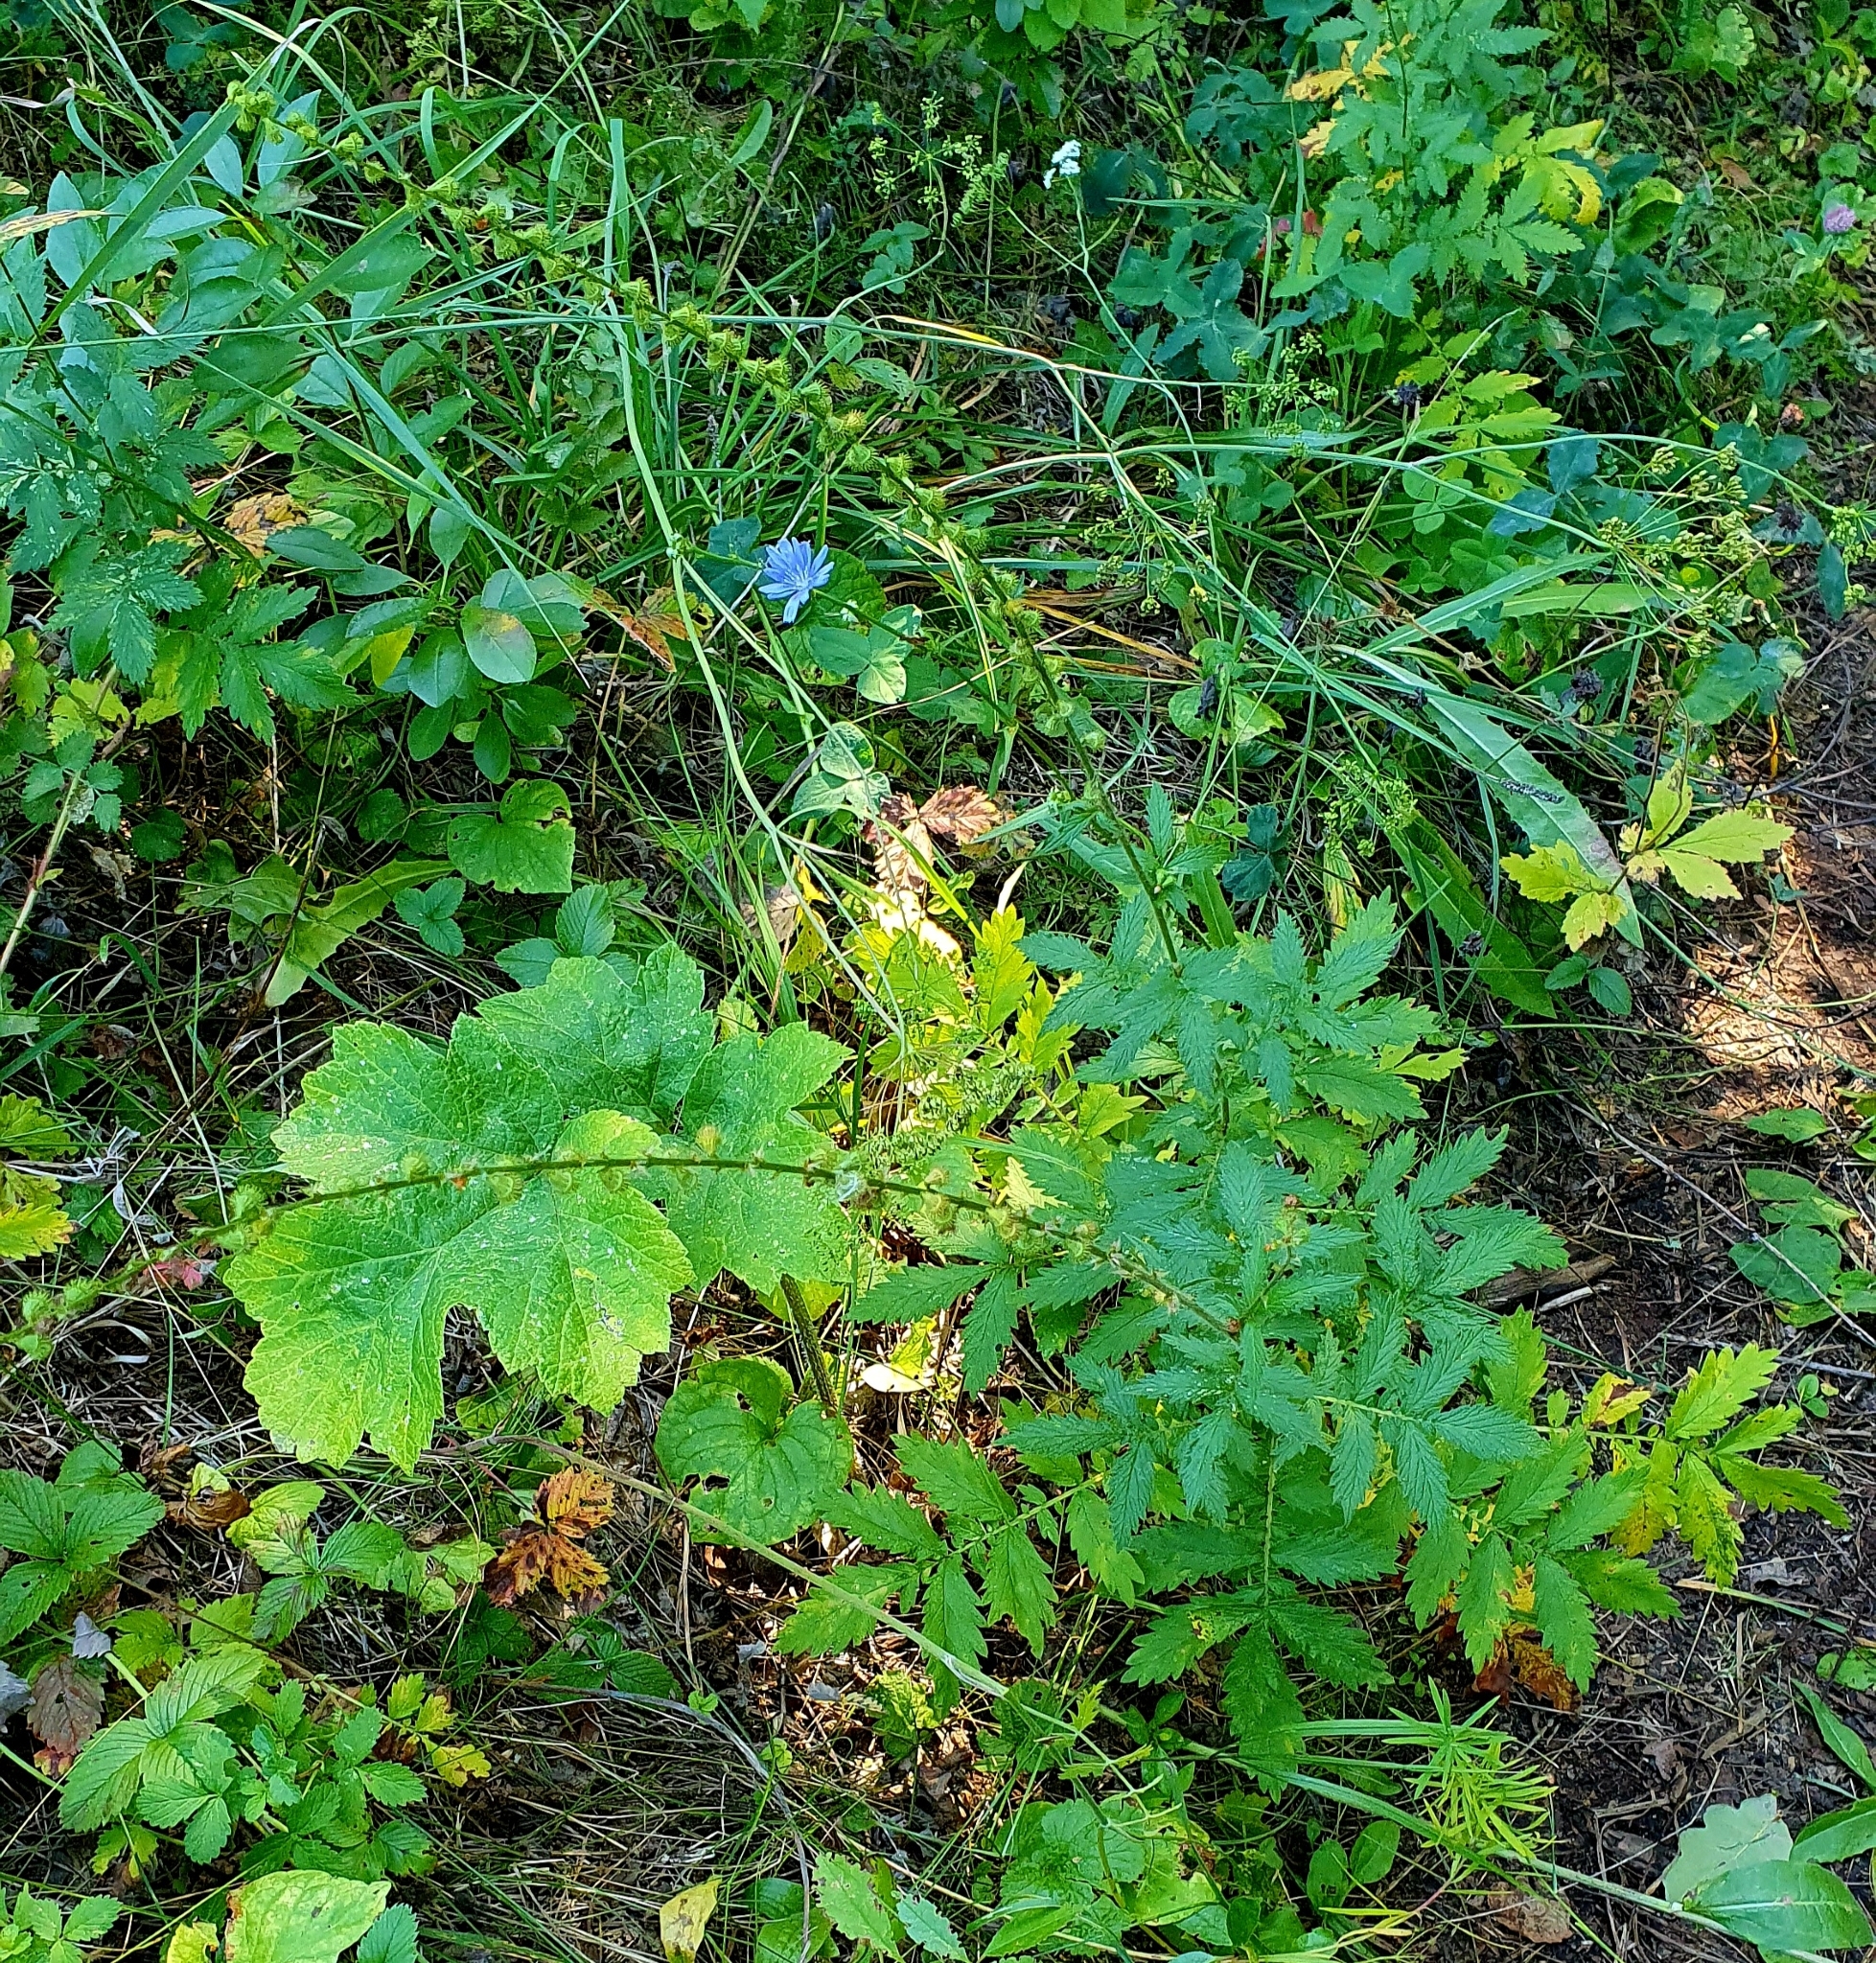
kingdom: Plantae
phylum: Tracheophyta
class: Magnoliopsida
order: Rosales
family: Rosaceae
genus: Agrimonia
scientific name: Agrimonia eupatoria
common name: Agrimony
